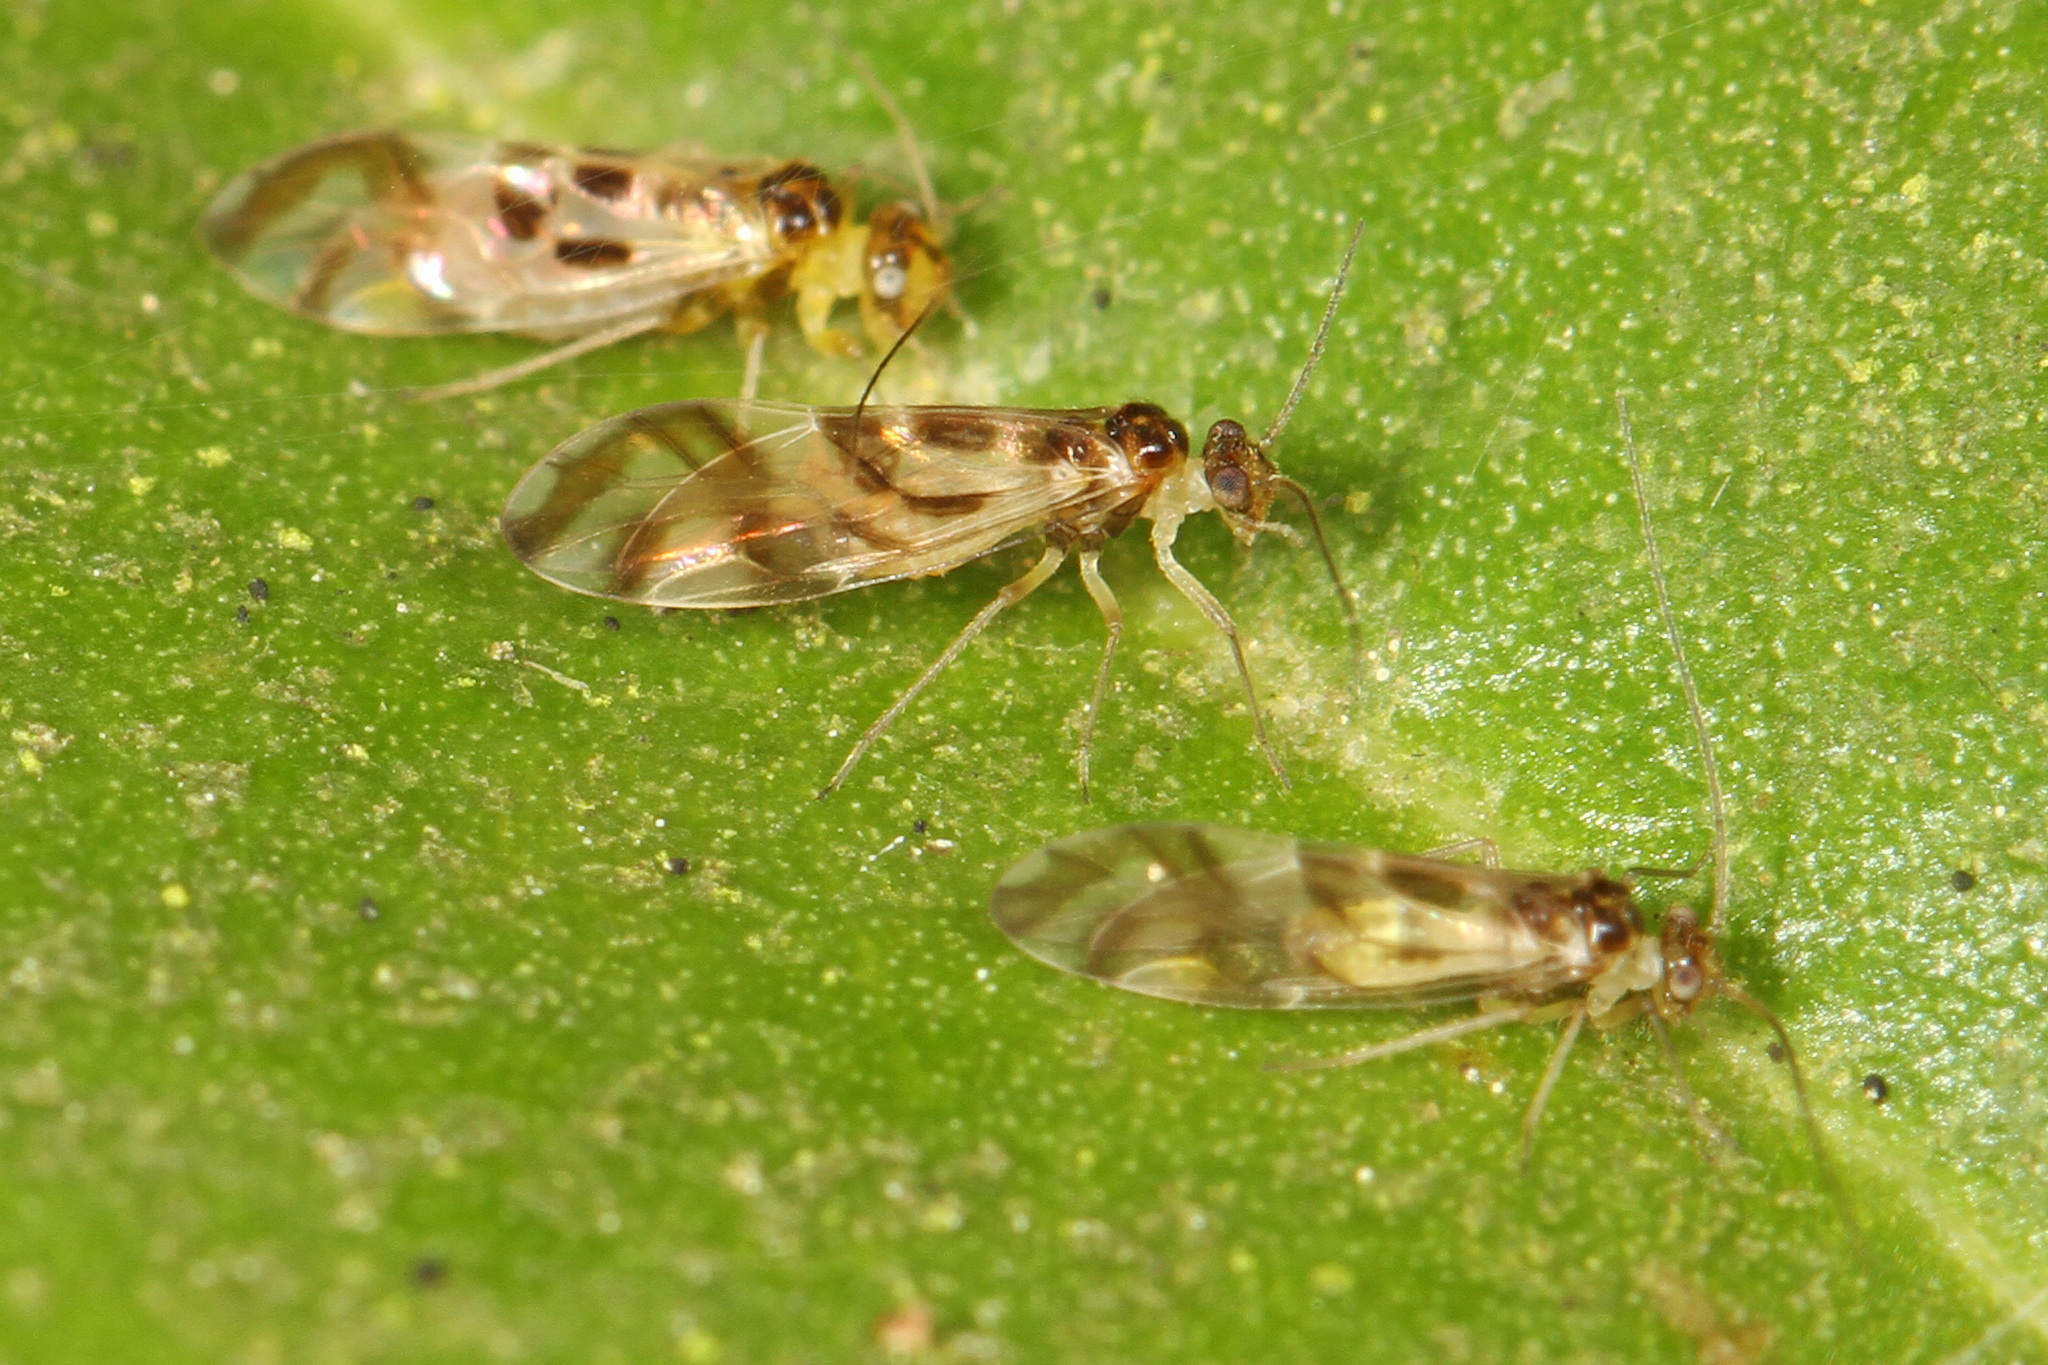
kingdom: Animalia
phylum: Arthropoda
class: Insecta
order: Psocodea
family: Stenopsocidae
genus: Graphopsocus
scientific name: Graphopsocus cruciatus
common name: Lizard bark louse
